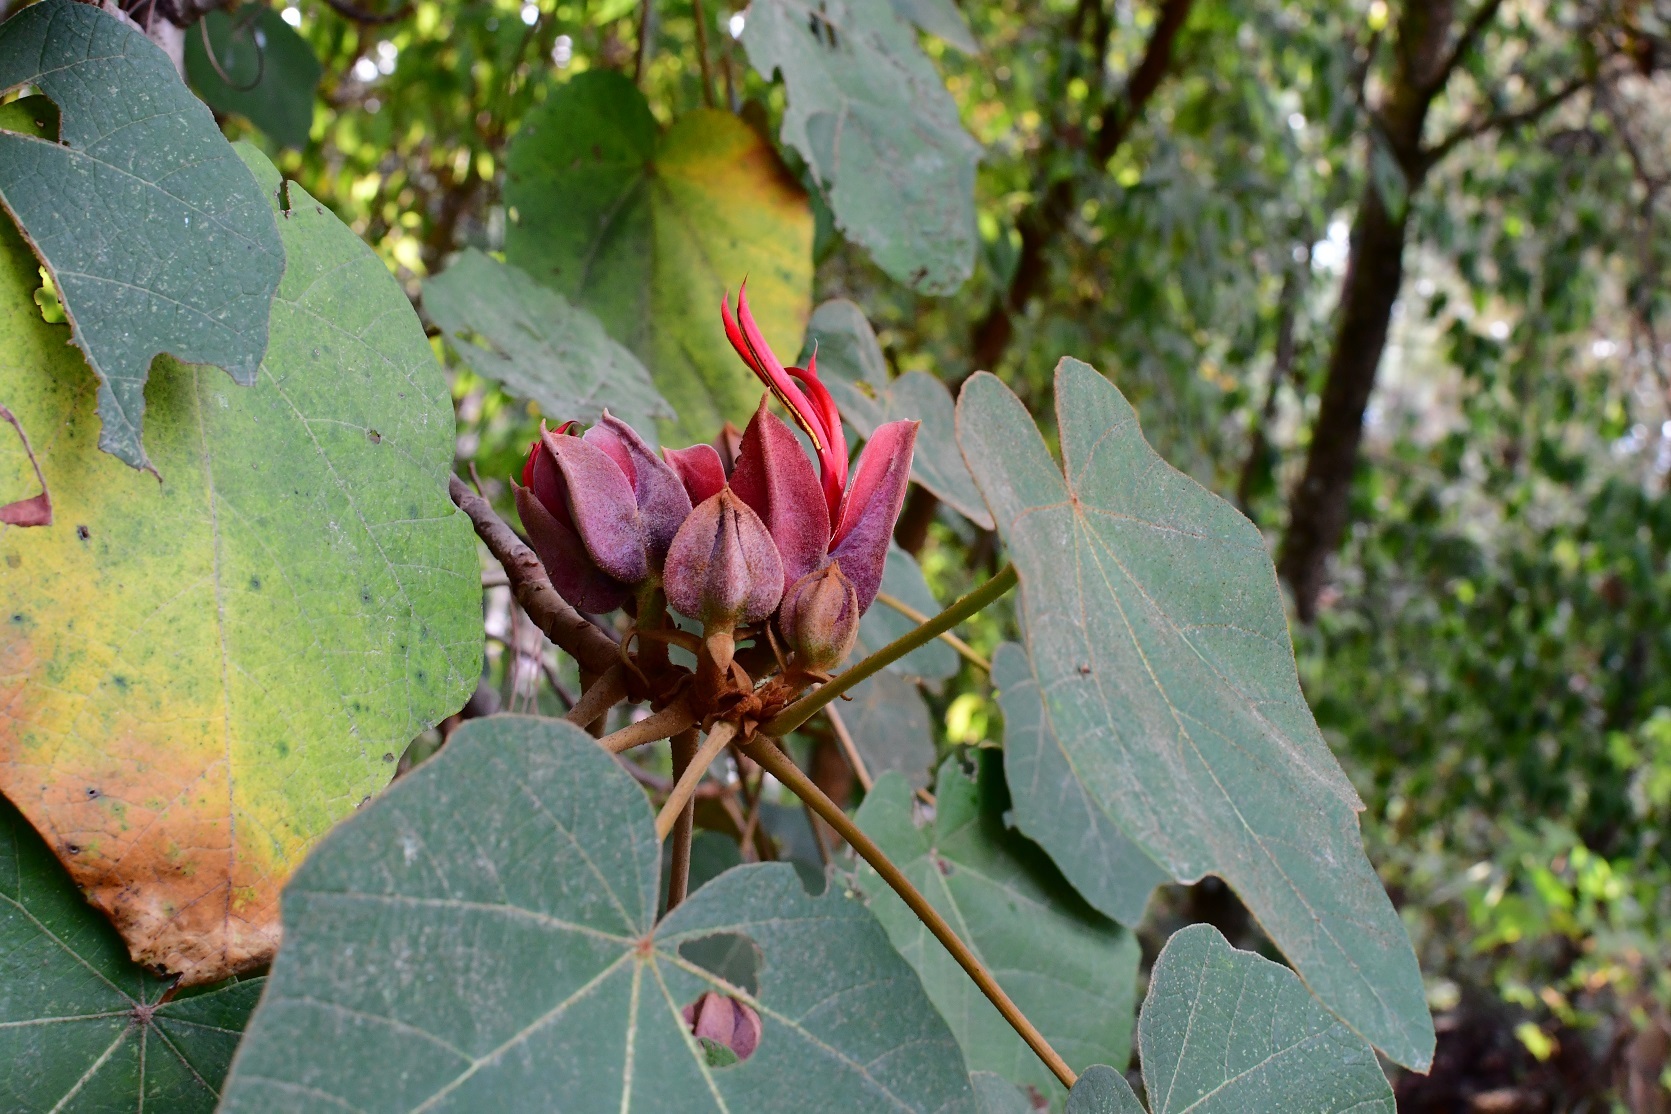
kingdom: Plantae
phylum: Tracheophyta
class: Magnoliopsida
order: Malvales
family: Malvaceae
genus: Chiranthodendron
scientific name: Chiranthodendron pentadactylon
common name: Mexican-hat-plant
